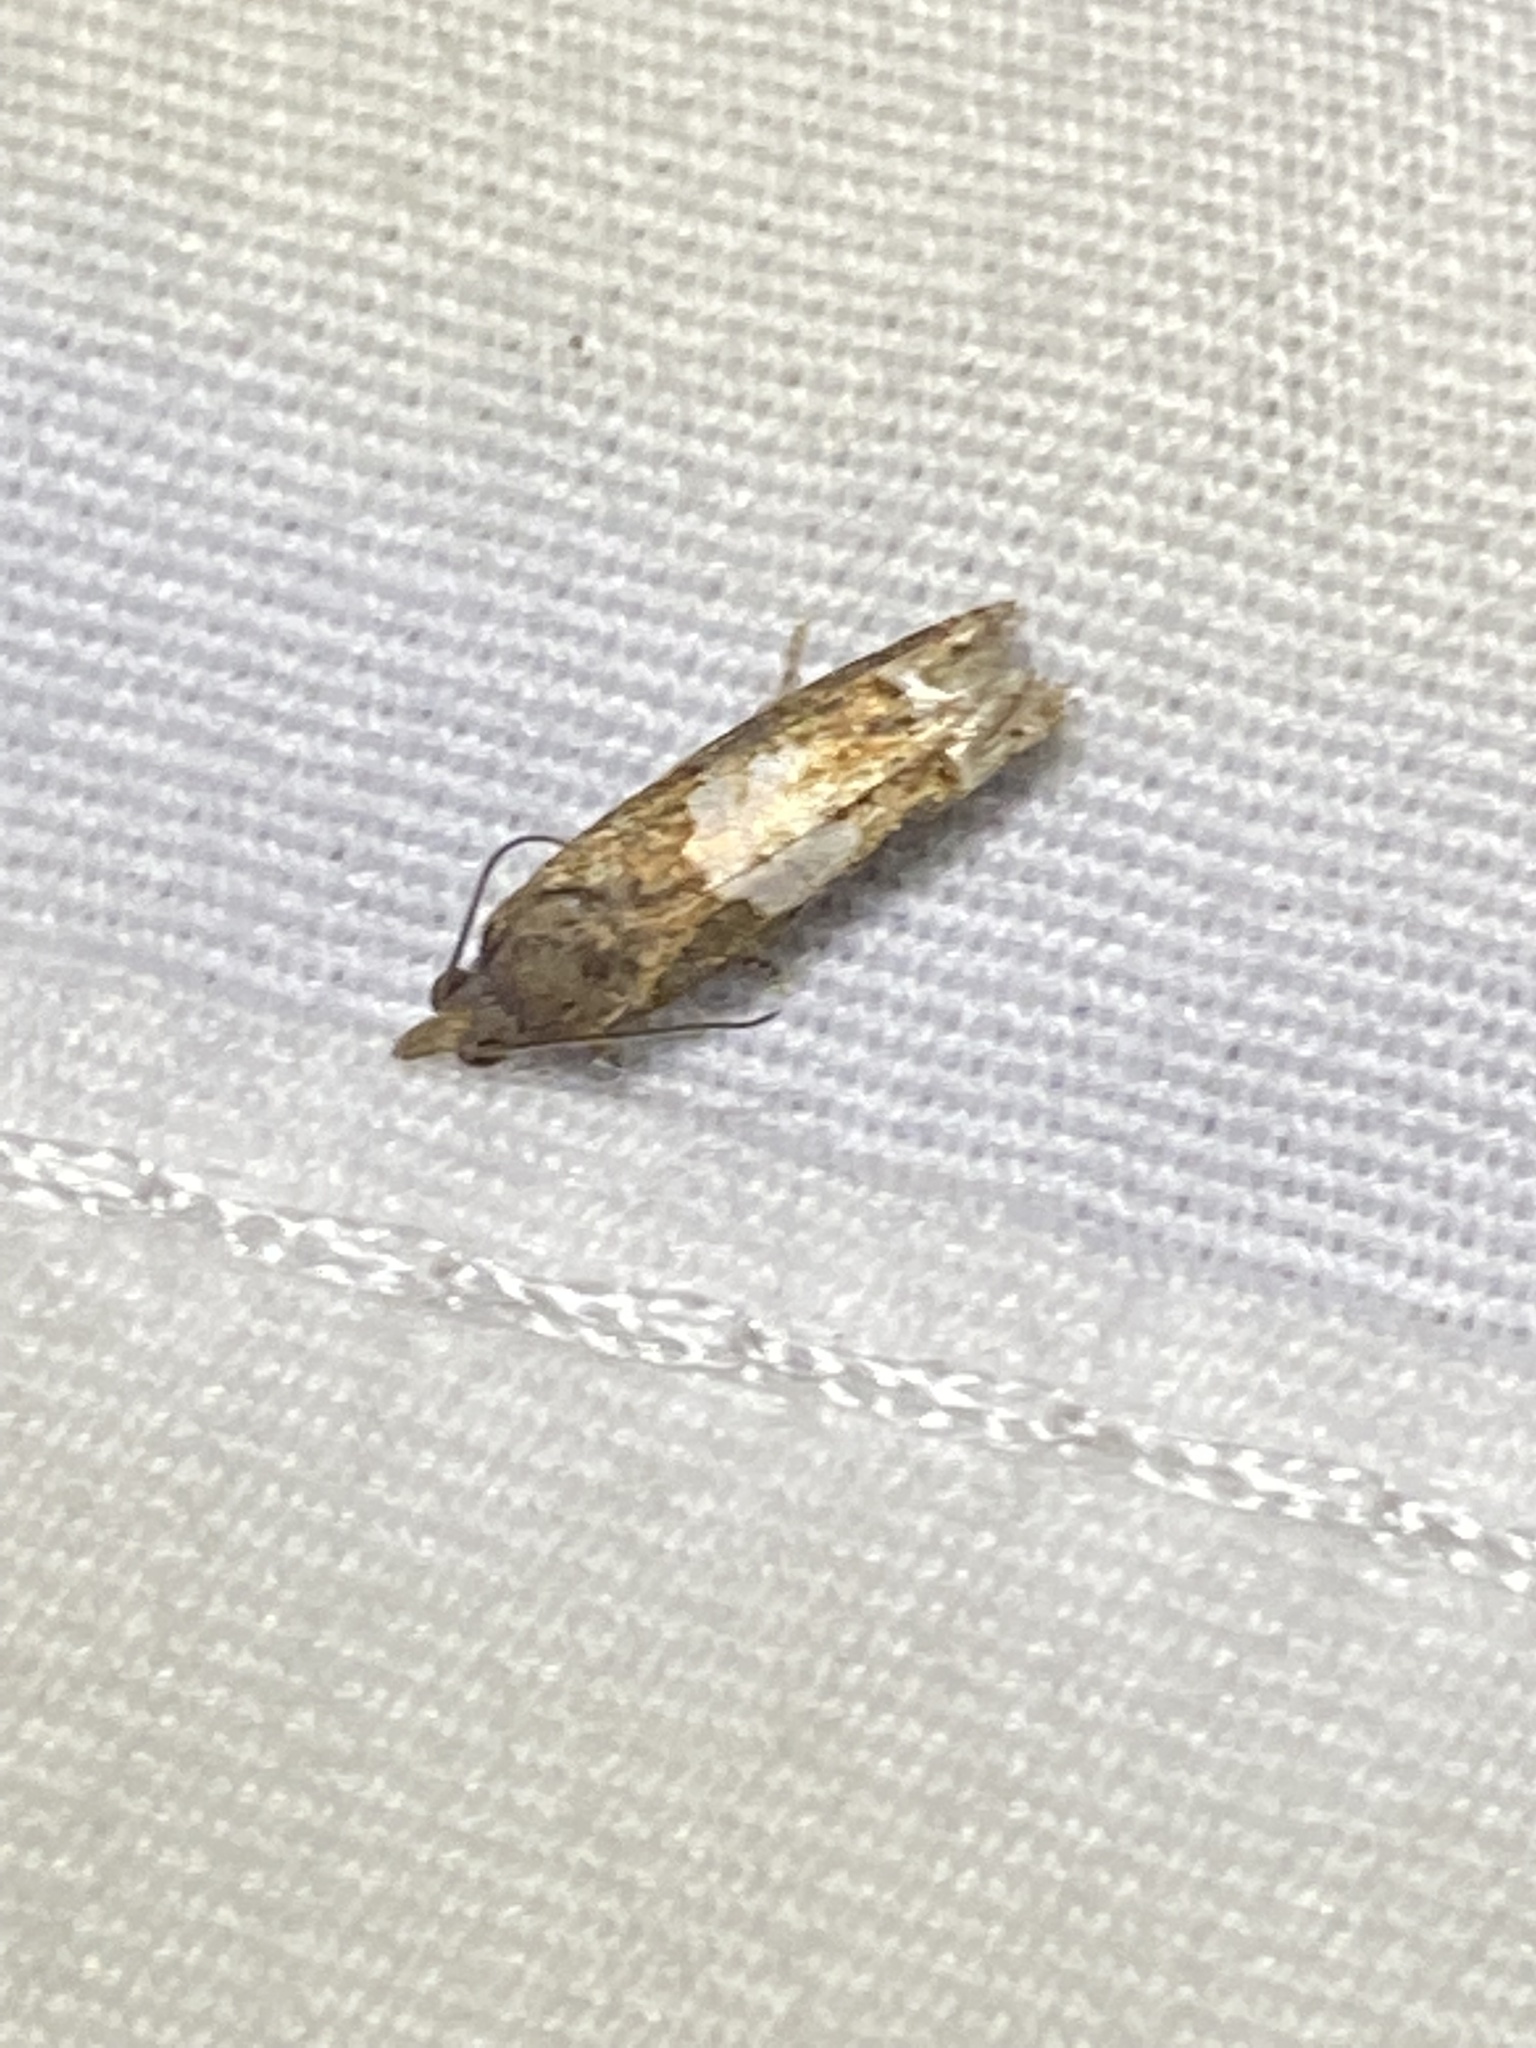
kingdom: Animalia
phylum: Arthropoda
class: Insecta
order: Lepidoptera
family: Tortricidae
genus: Eucosma
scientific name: Eucosma parmatana
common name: Aster eucosma moth
